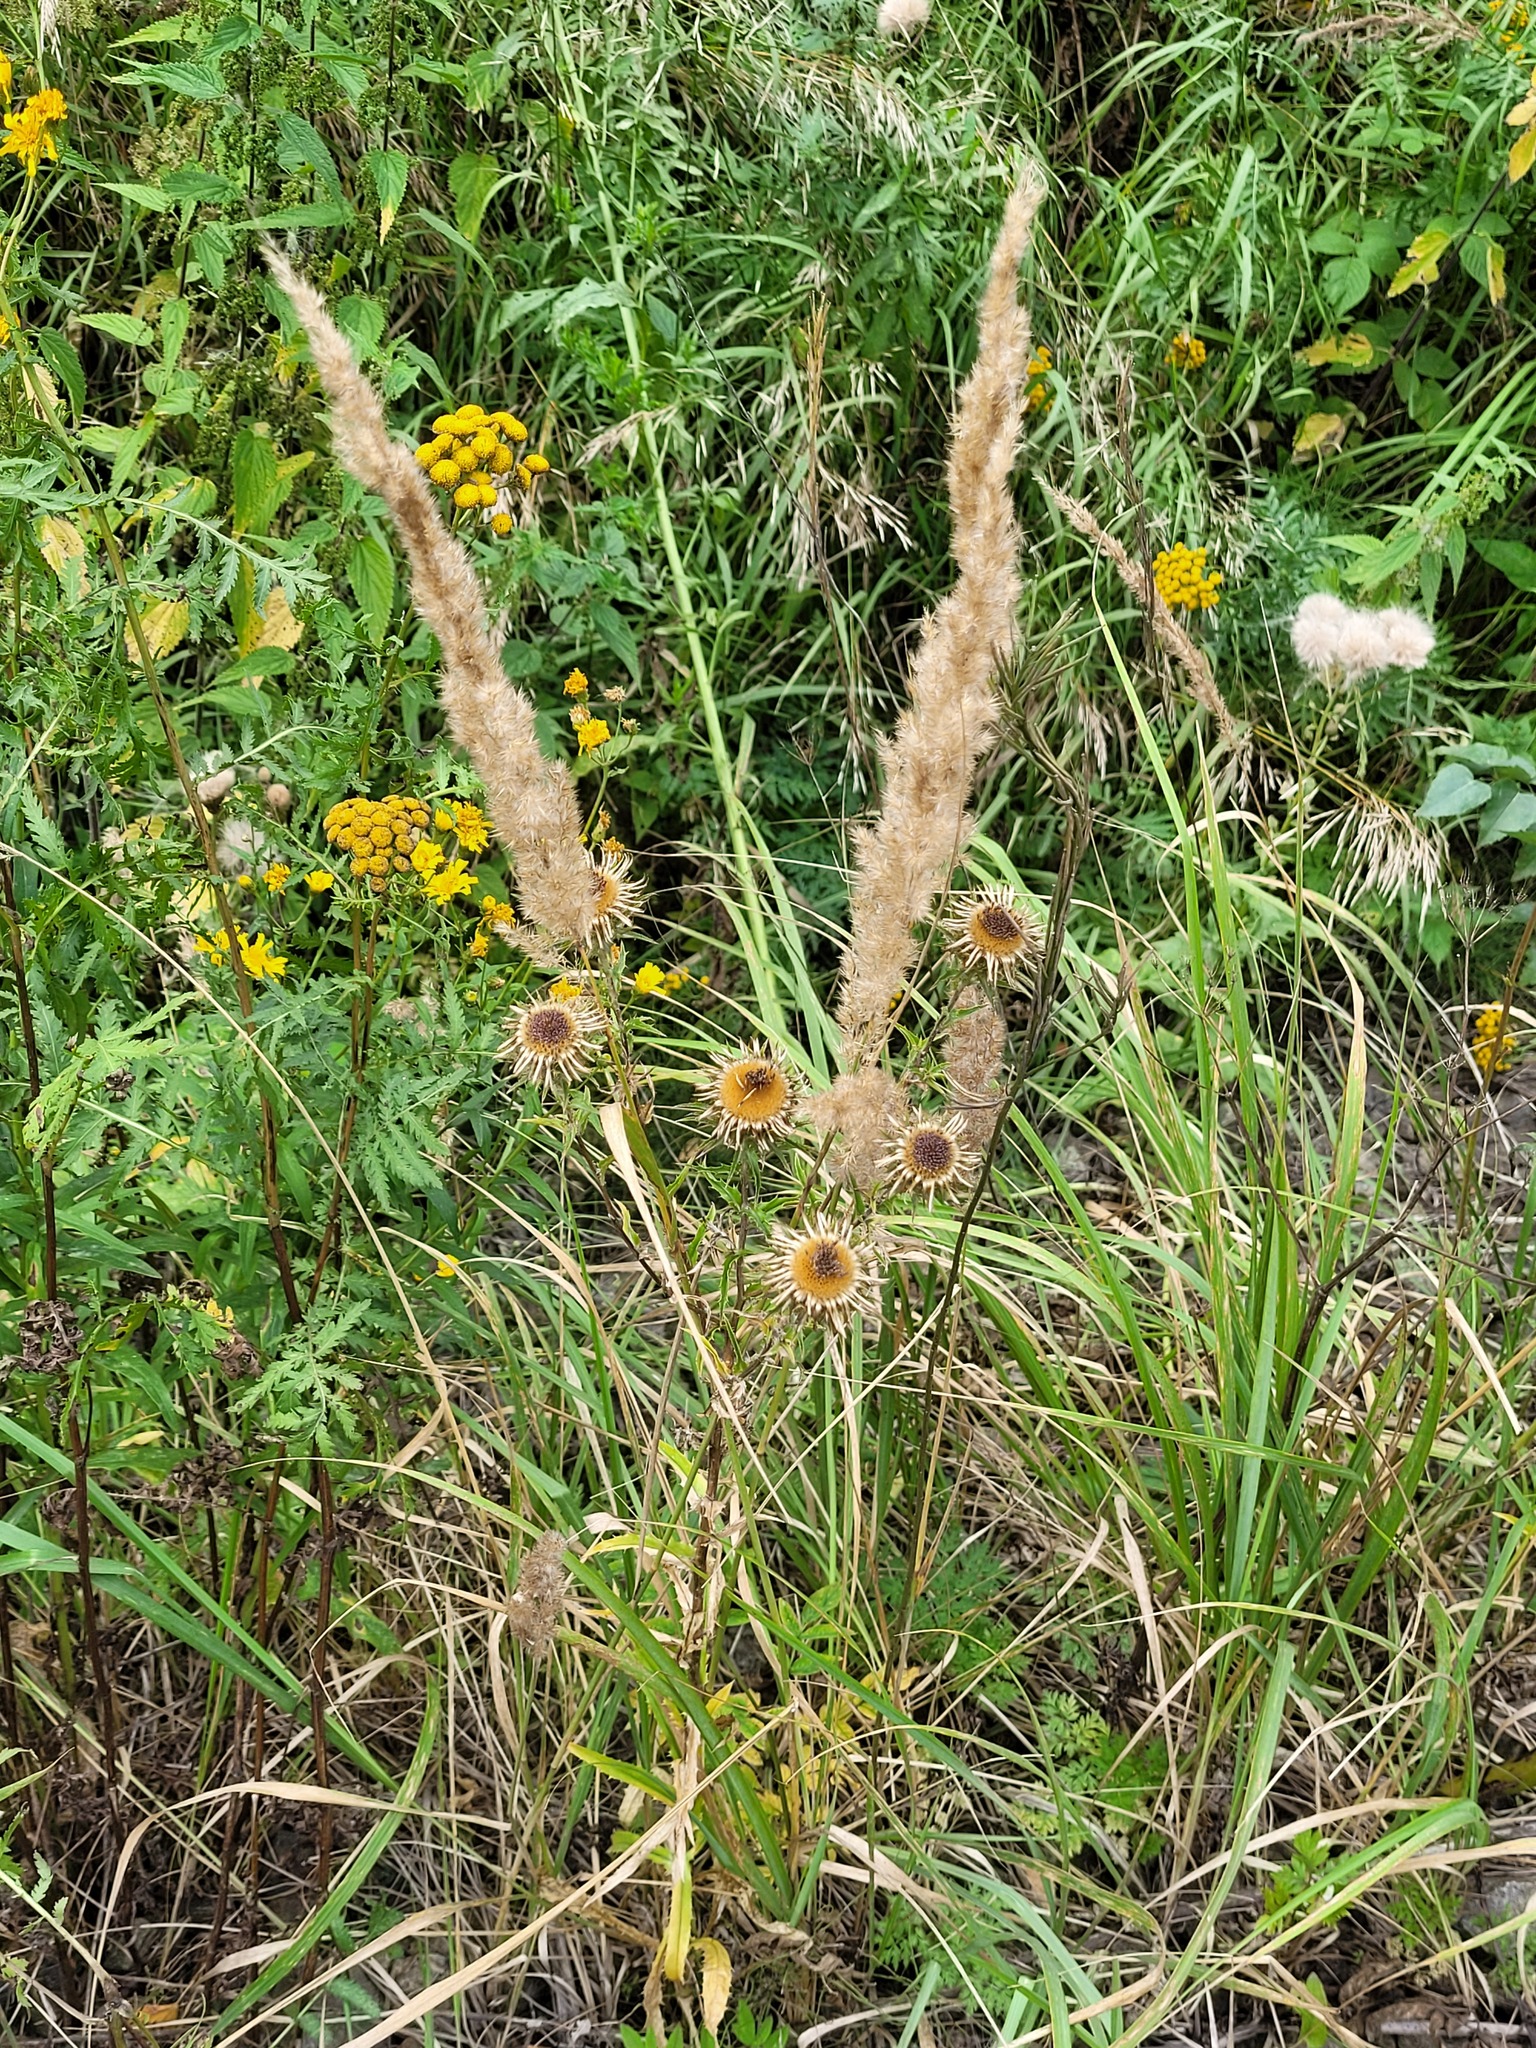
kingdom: Plantae
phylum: Tracheophyta
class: Magnoliopsida
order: Asterales
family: Asteraceae
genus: Carlina
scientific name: Carlina biebersteinii
